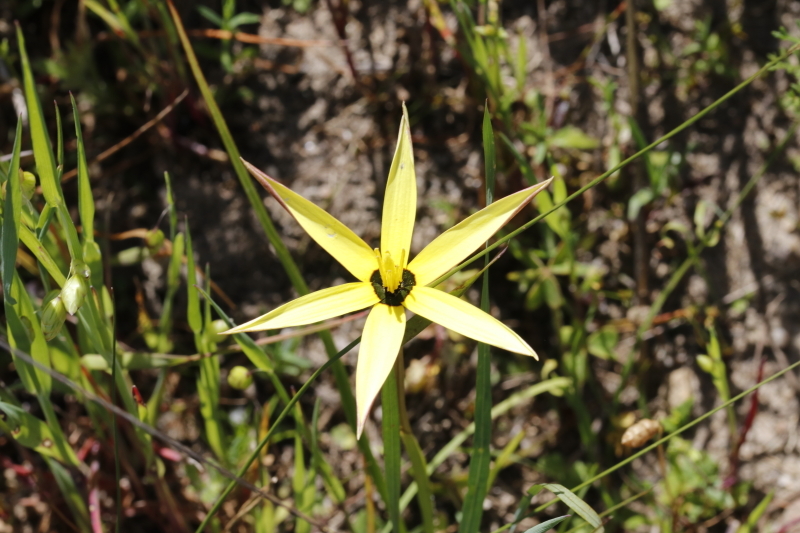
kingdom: Plantae
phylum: Tracheophyta
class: Liliopsida
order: Asparagales
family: Hypoxidaceae
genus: Pauridia
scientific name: Pauridia capensis
